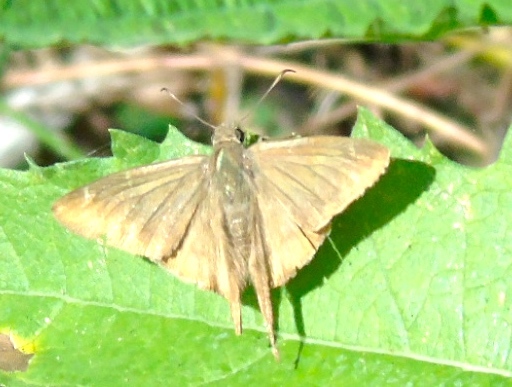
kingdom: Animalia
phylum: Arthropoda
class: Insecta
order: Lepidoptera
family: Hesperiidae
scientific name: Hesperiidae
